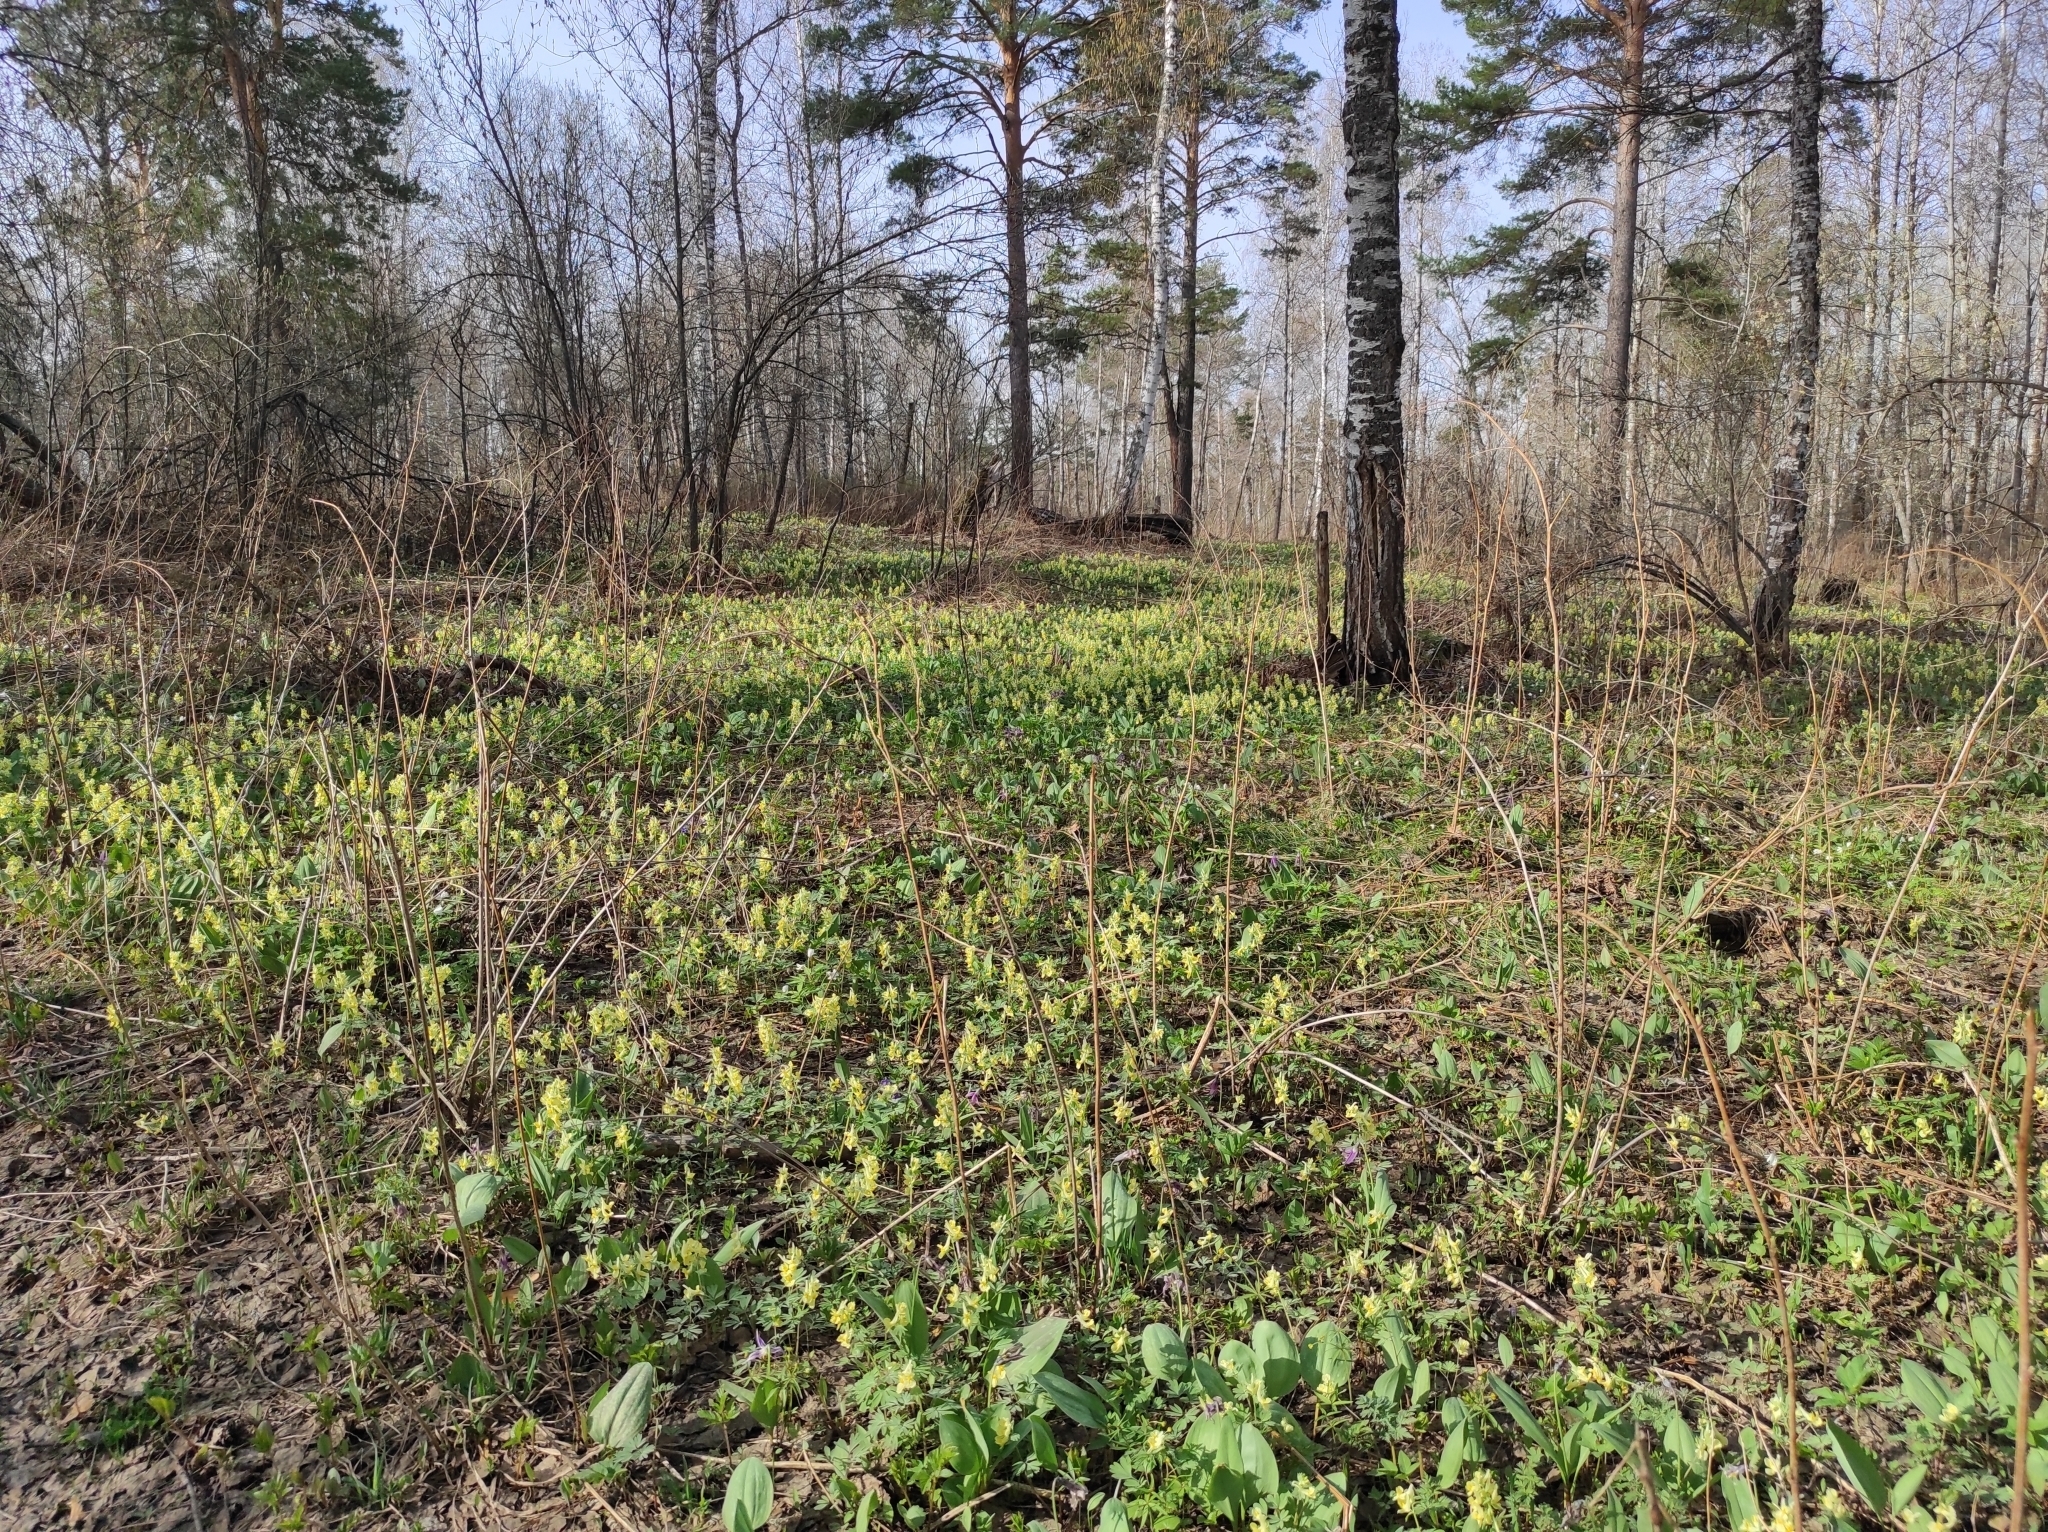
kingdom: Plantae
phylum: Tracheophyta
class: Liliopsida
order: Liliales
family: Liliaceae
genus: Erythronium
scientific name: Erythronium sibiricum
